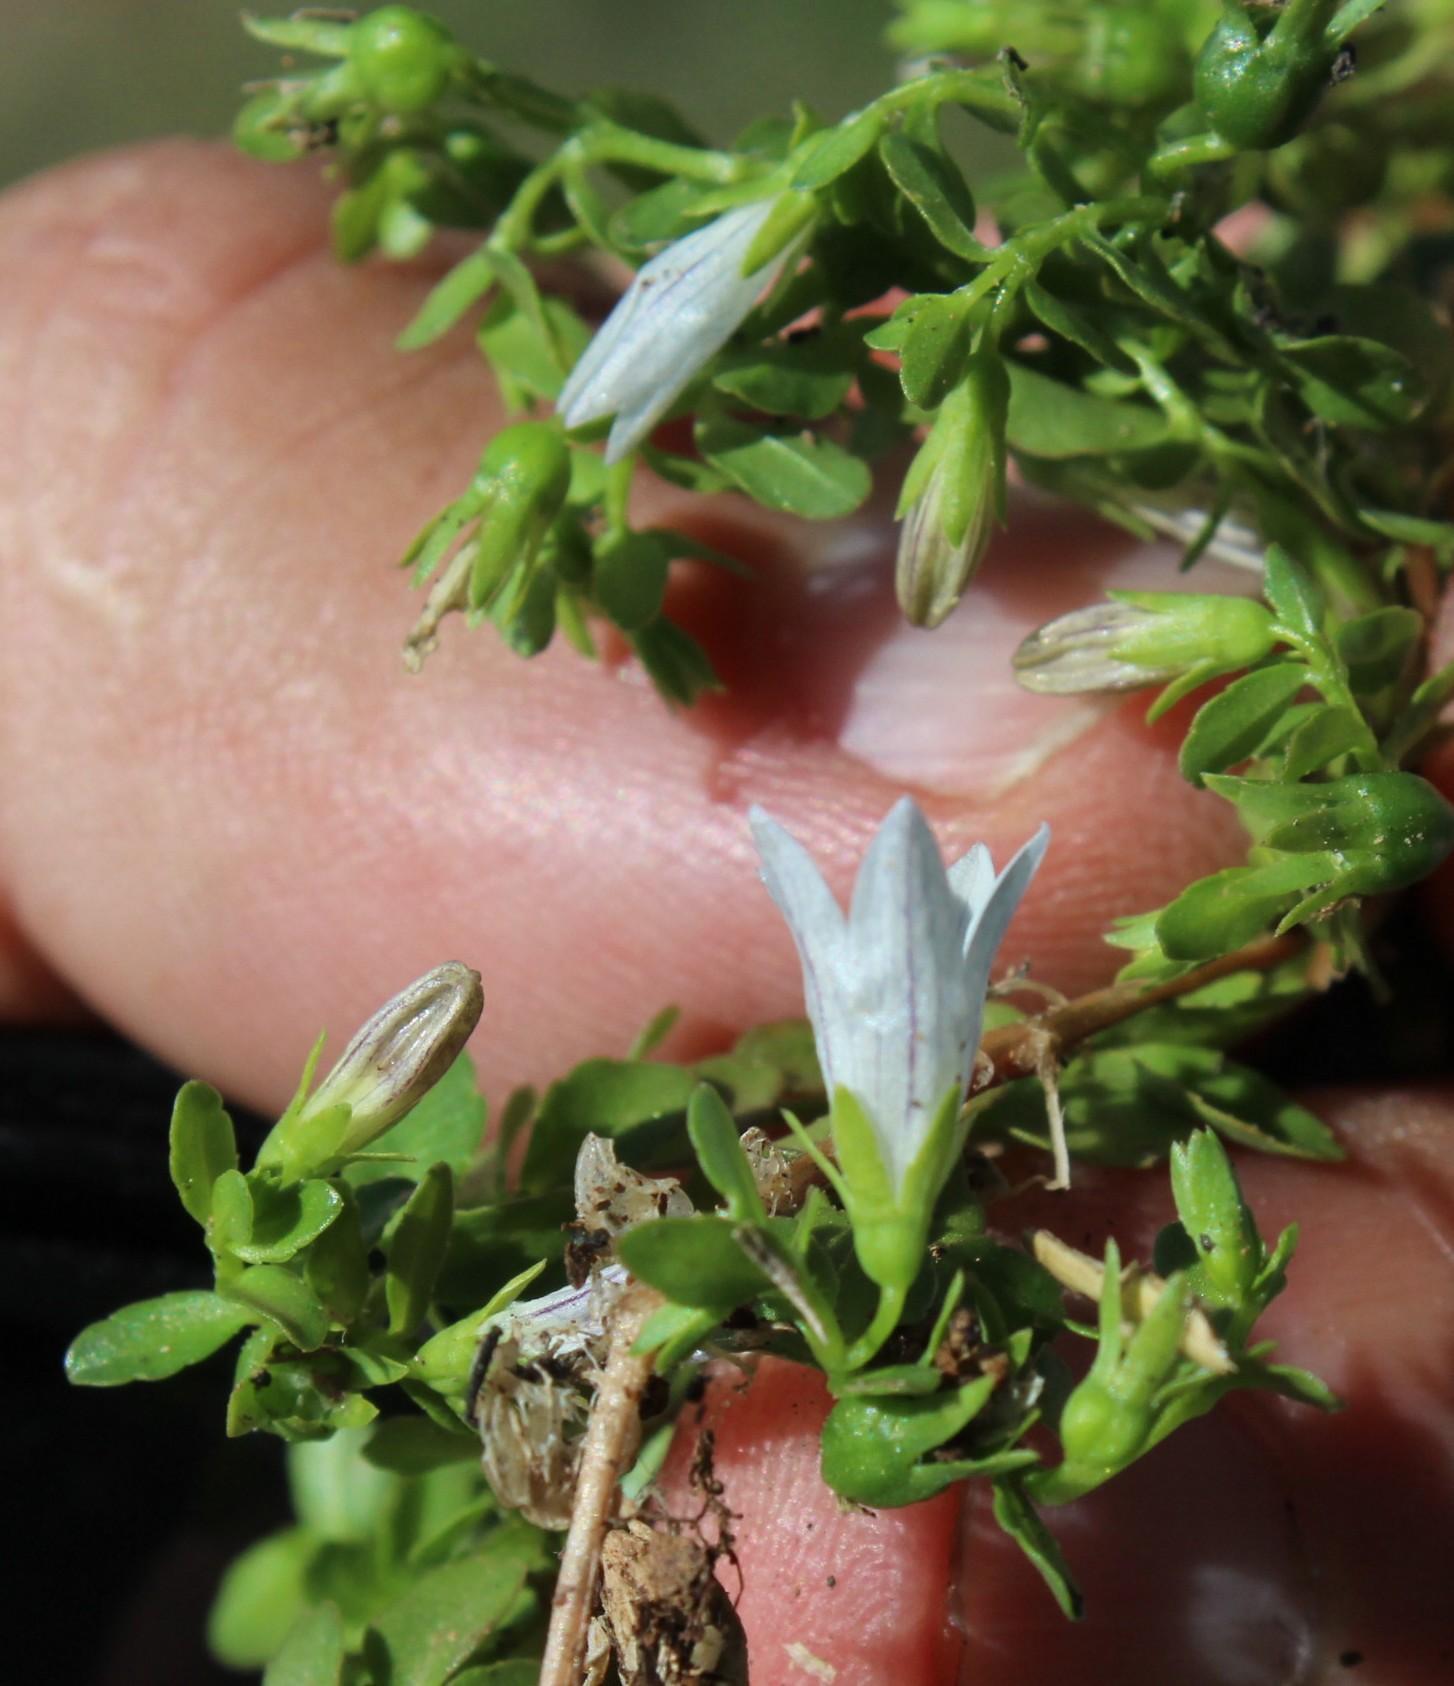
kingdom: Plantae
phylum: Tracheophyta
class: Magnoliopsida
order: Asterales
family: Campanulaceae
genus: Wahlenbergia
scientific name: Wahlenbergia procumbens
